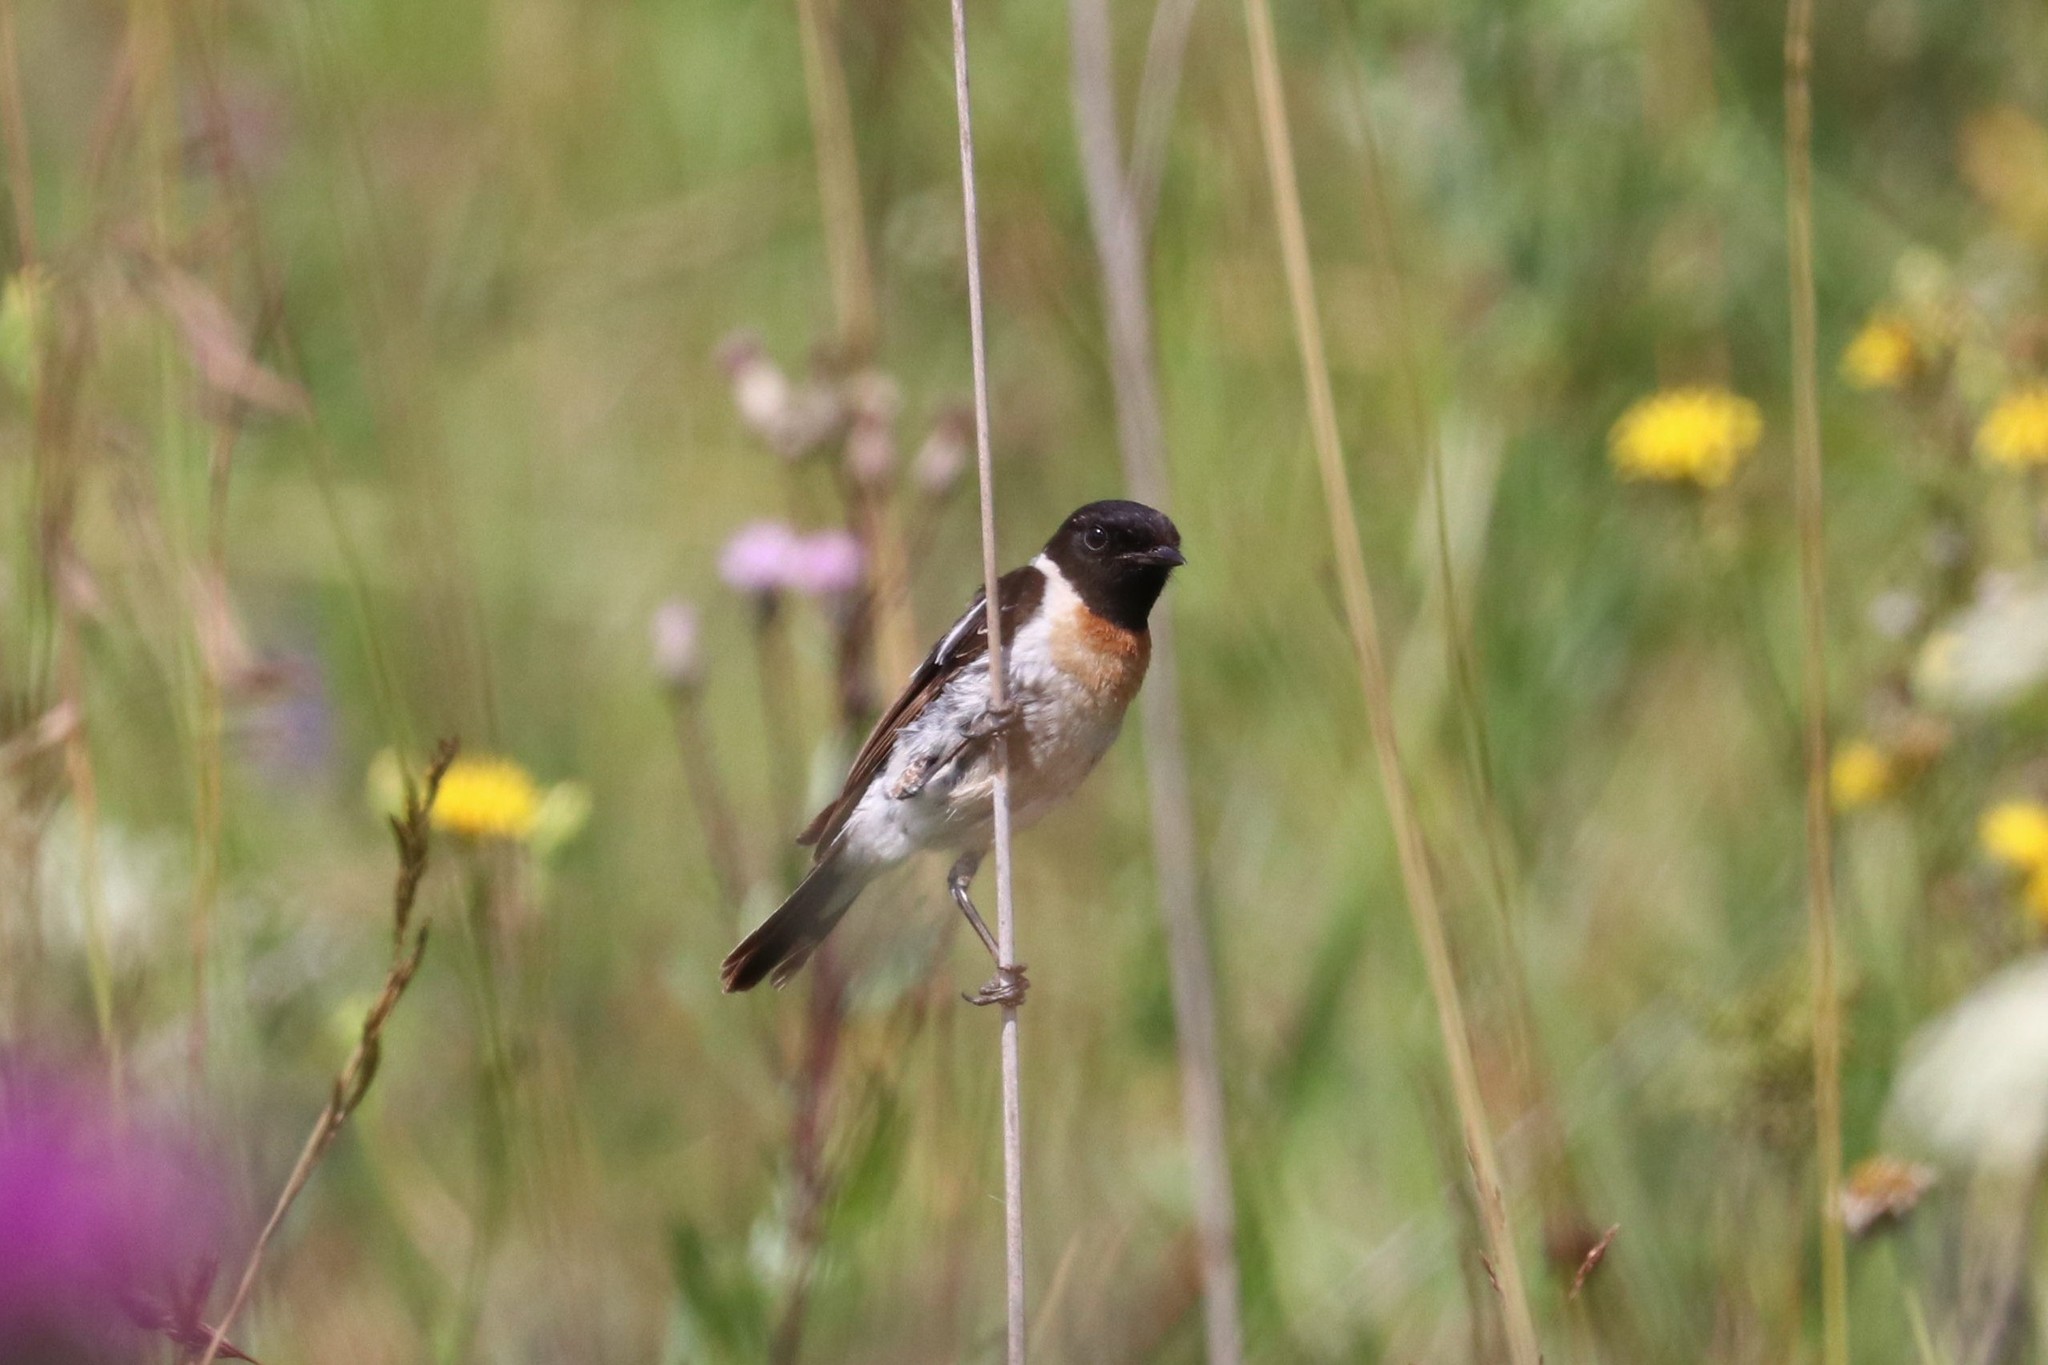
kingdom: Animalia
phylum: Chordata
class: Aves
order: Passeriformes
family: Muscicapidae
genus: Saxicola
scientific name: Saxicola maurus
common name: Siberian stonechat
